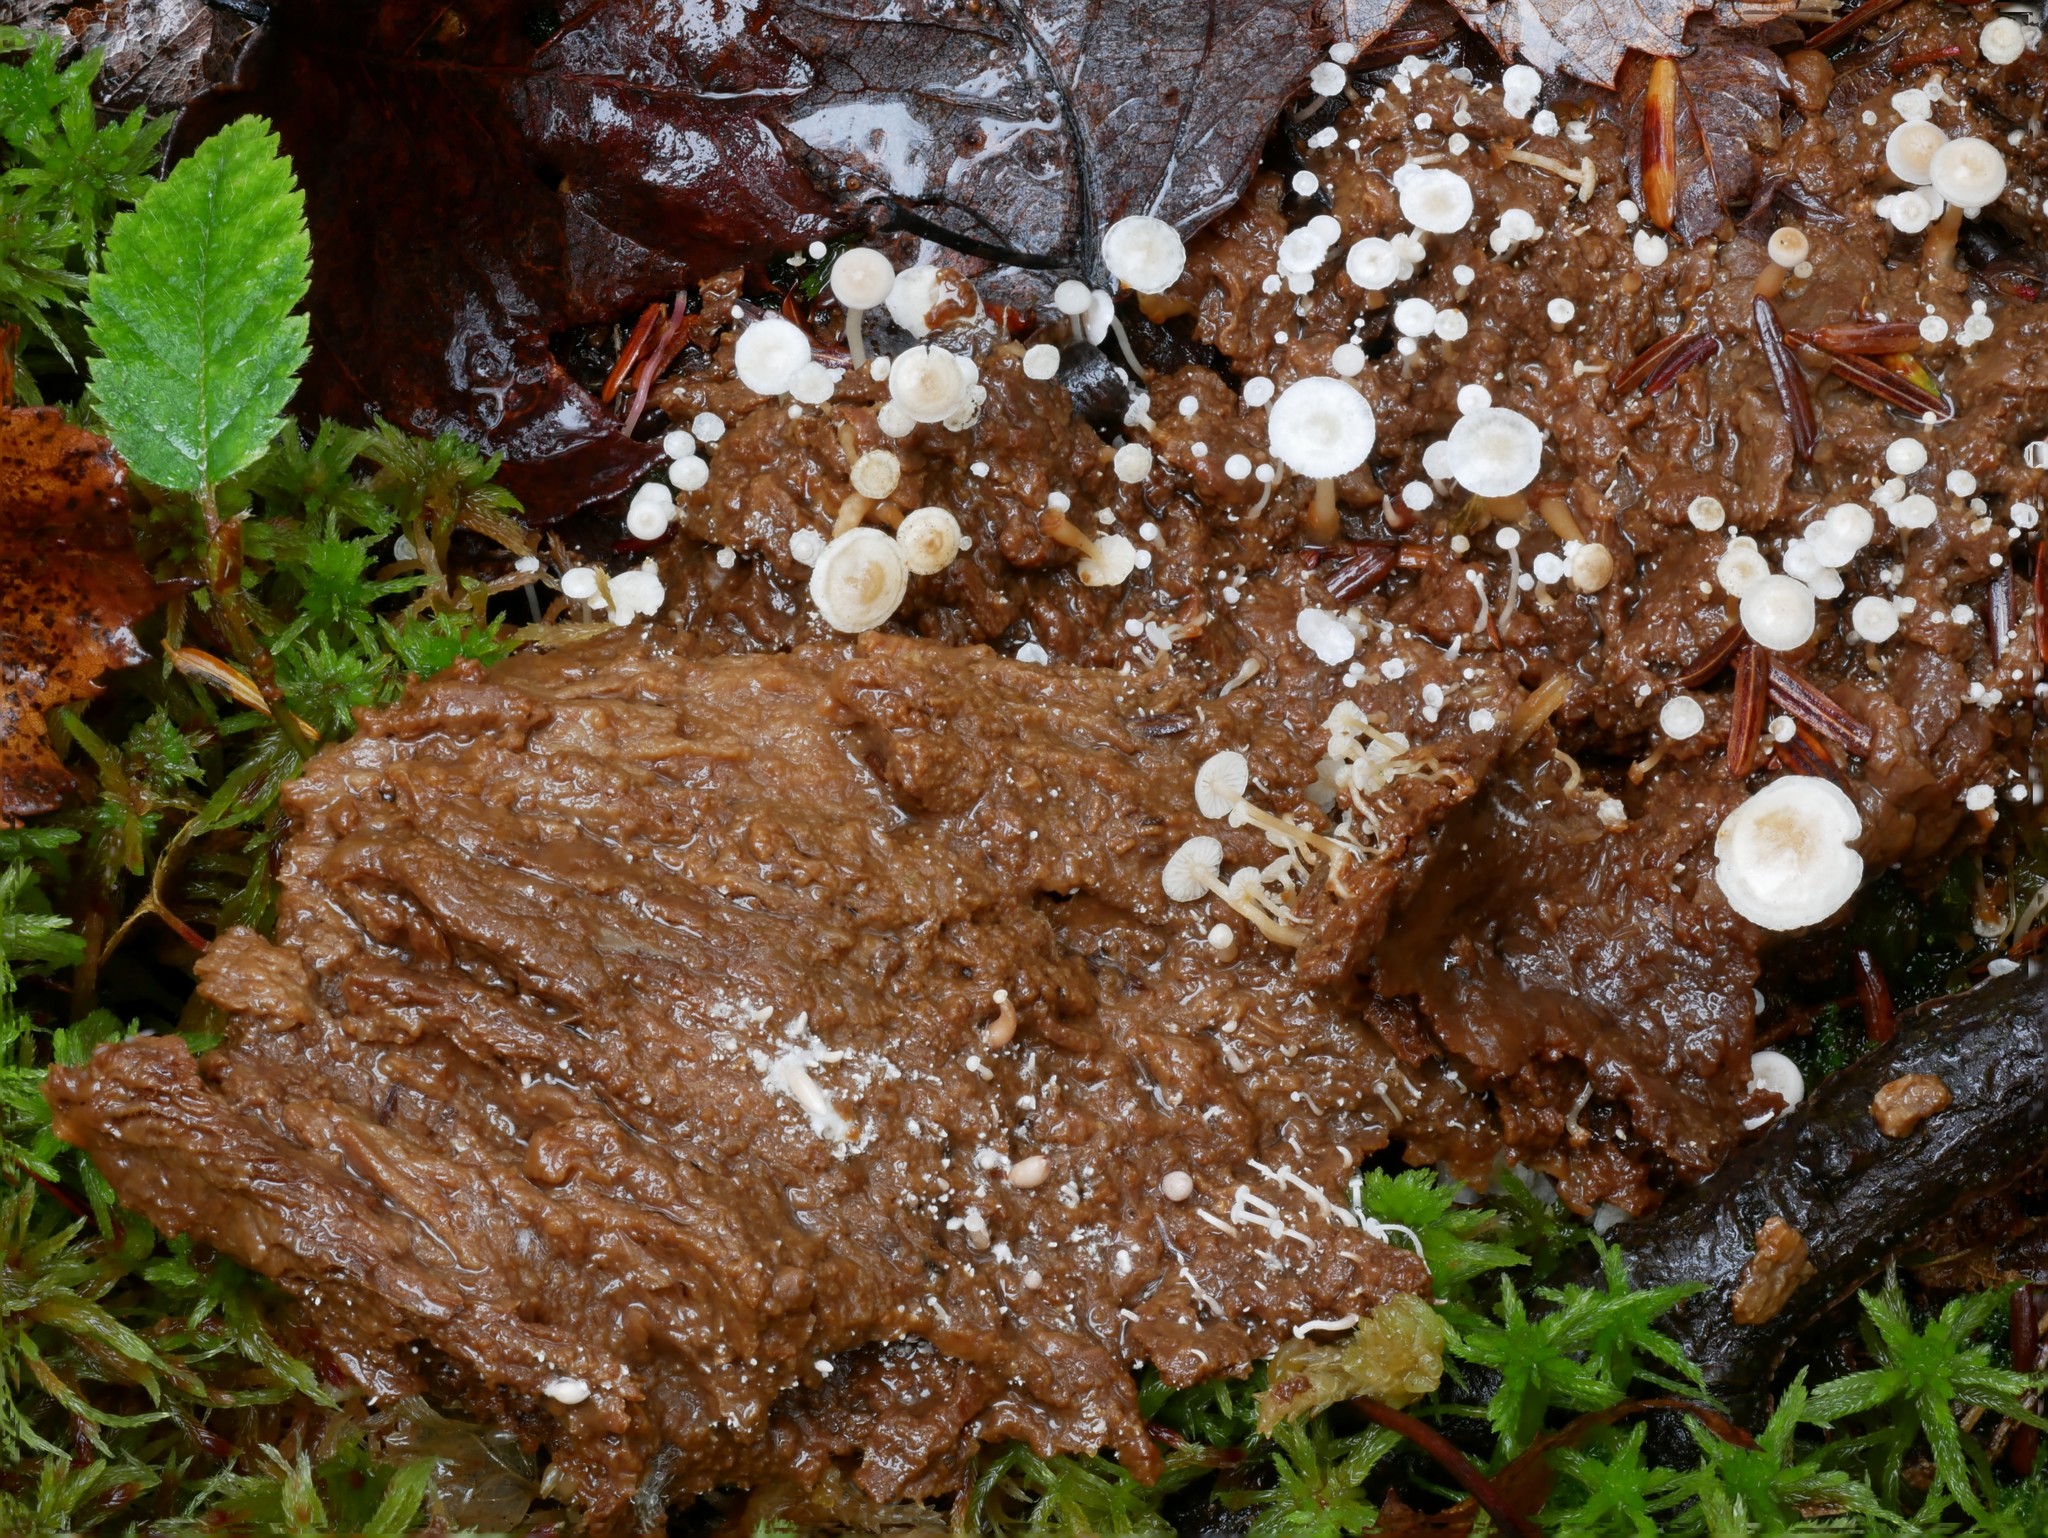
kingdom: Fungi
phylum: Basidiomycota
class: Agaricomycetes
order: Agaricales
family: Tricholomataceae
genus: Collybia
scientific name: Collybia cirrhata
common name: Piggyback shanklet
